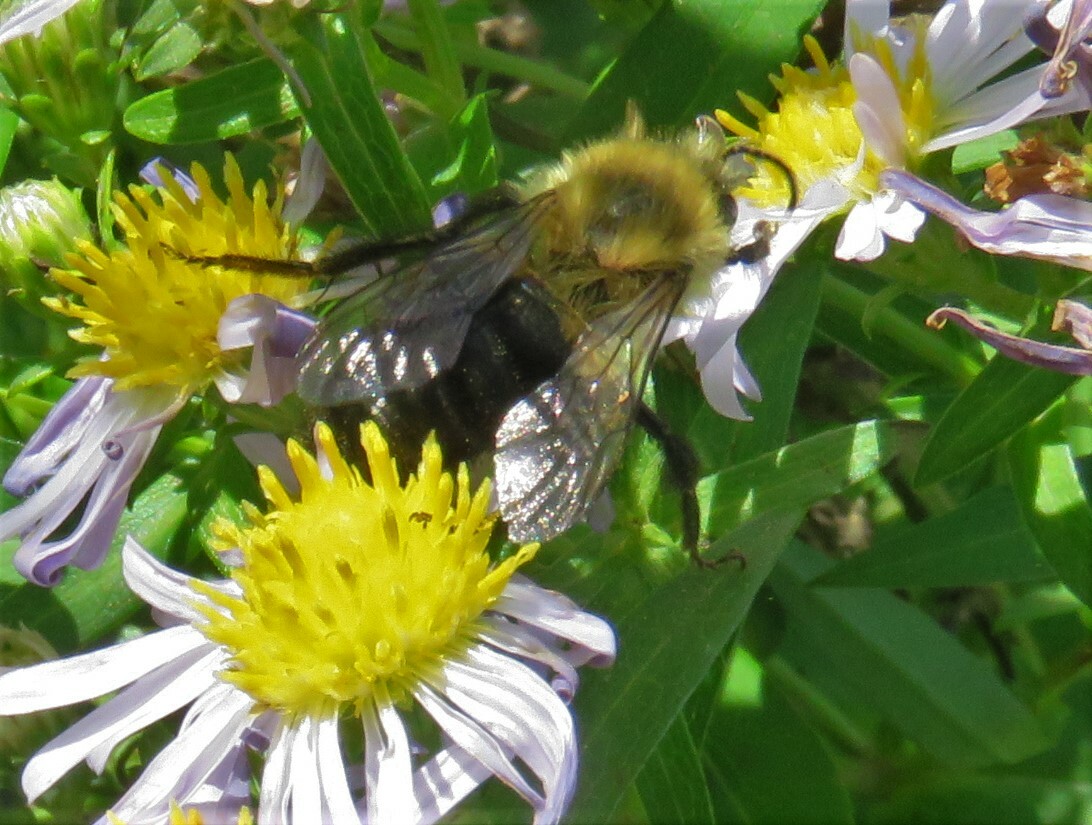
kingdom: Animalia
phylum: Arthropoda
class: Insecta
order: Hymenoptera
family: Apidae
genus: Bombus
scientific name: Bombus impatiens
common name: Common eastern bumble bee
